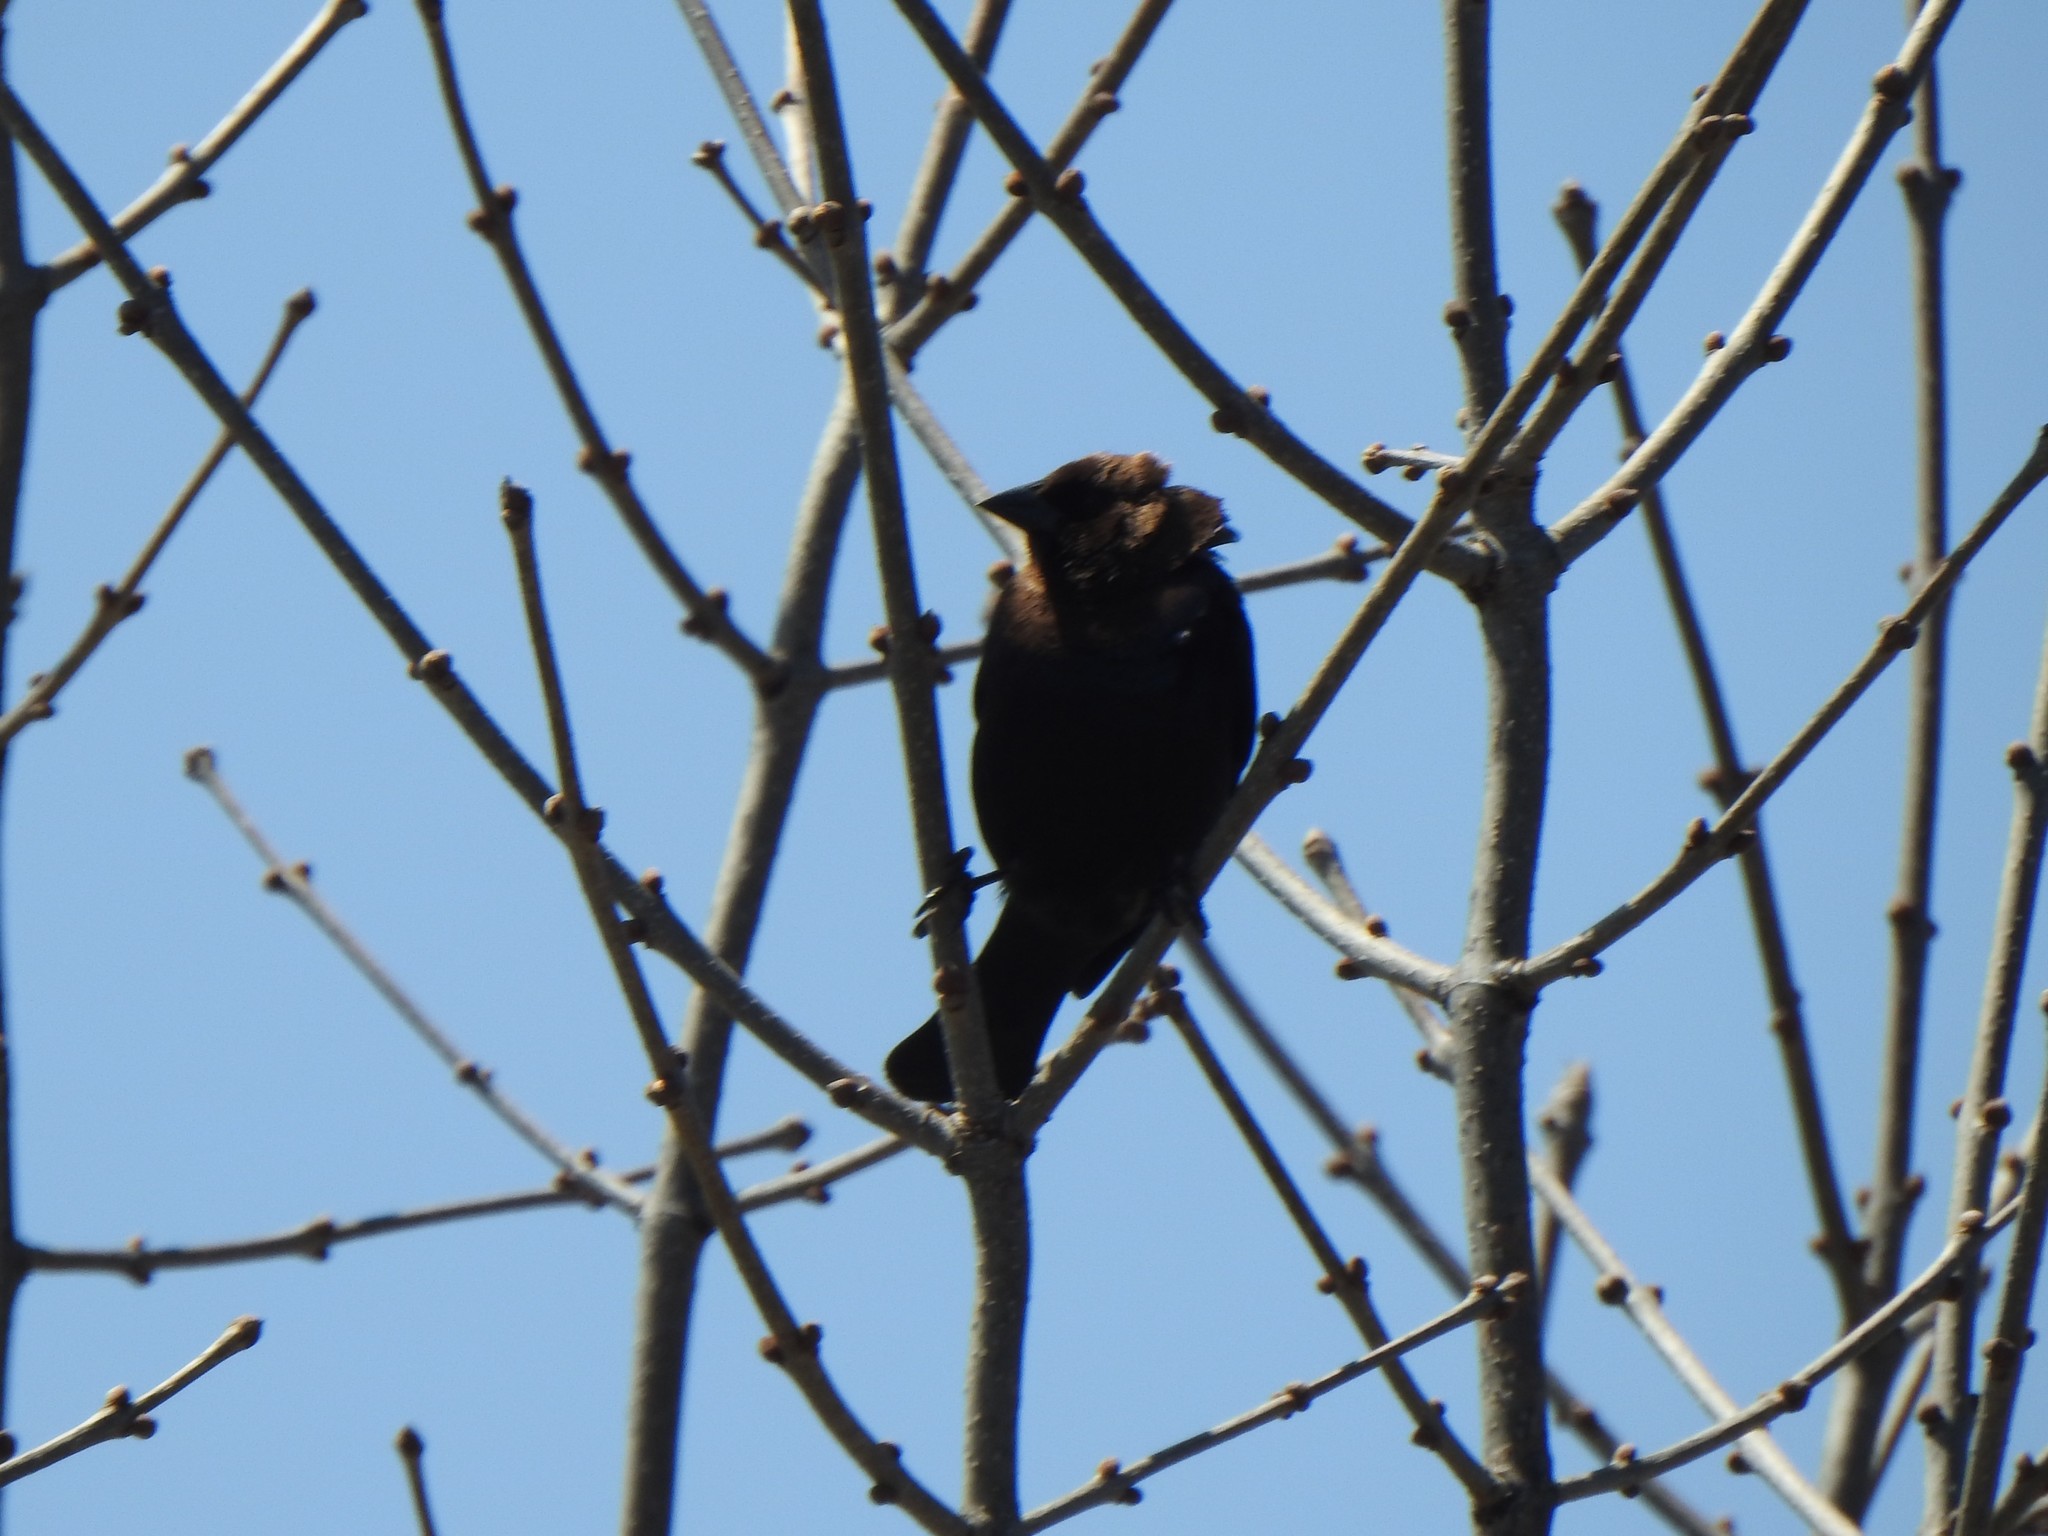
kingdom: Animalia
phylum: Chordata
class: Aves
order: Passeriformes
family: Icteridae
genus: Molothrus
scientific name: Molothrus ater
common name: Brown-headed cowbird
